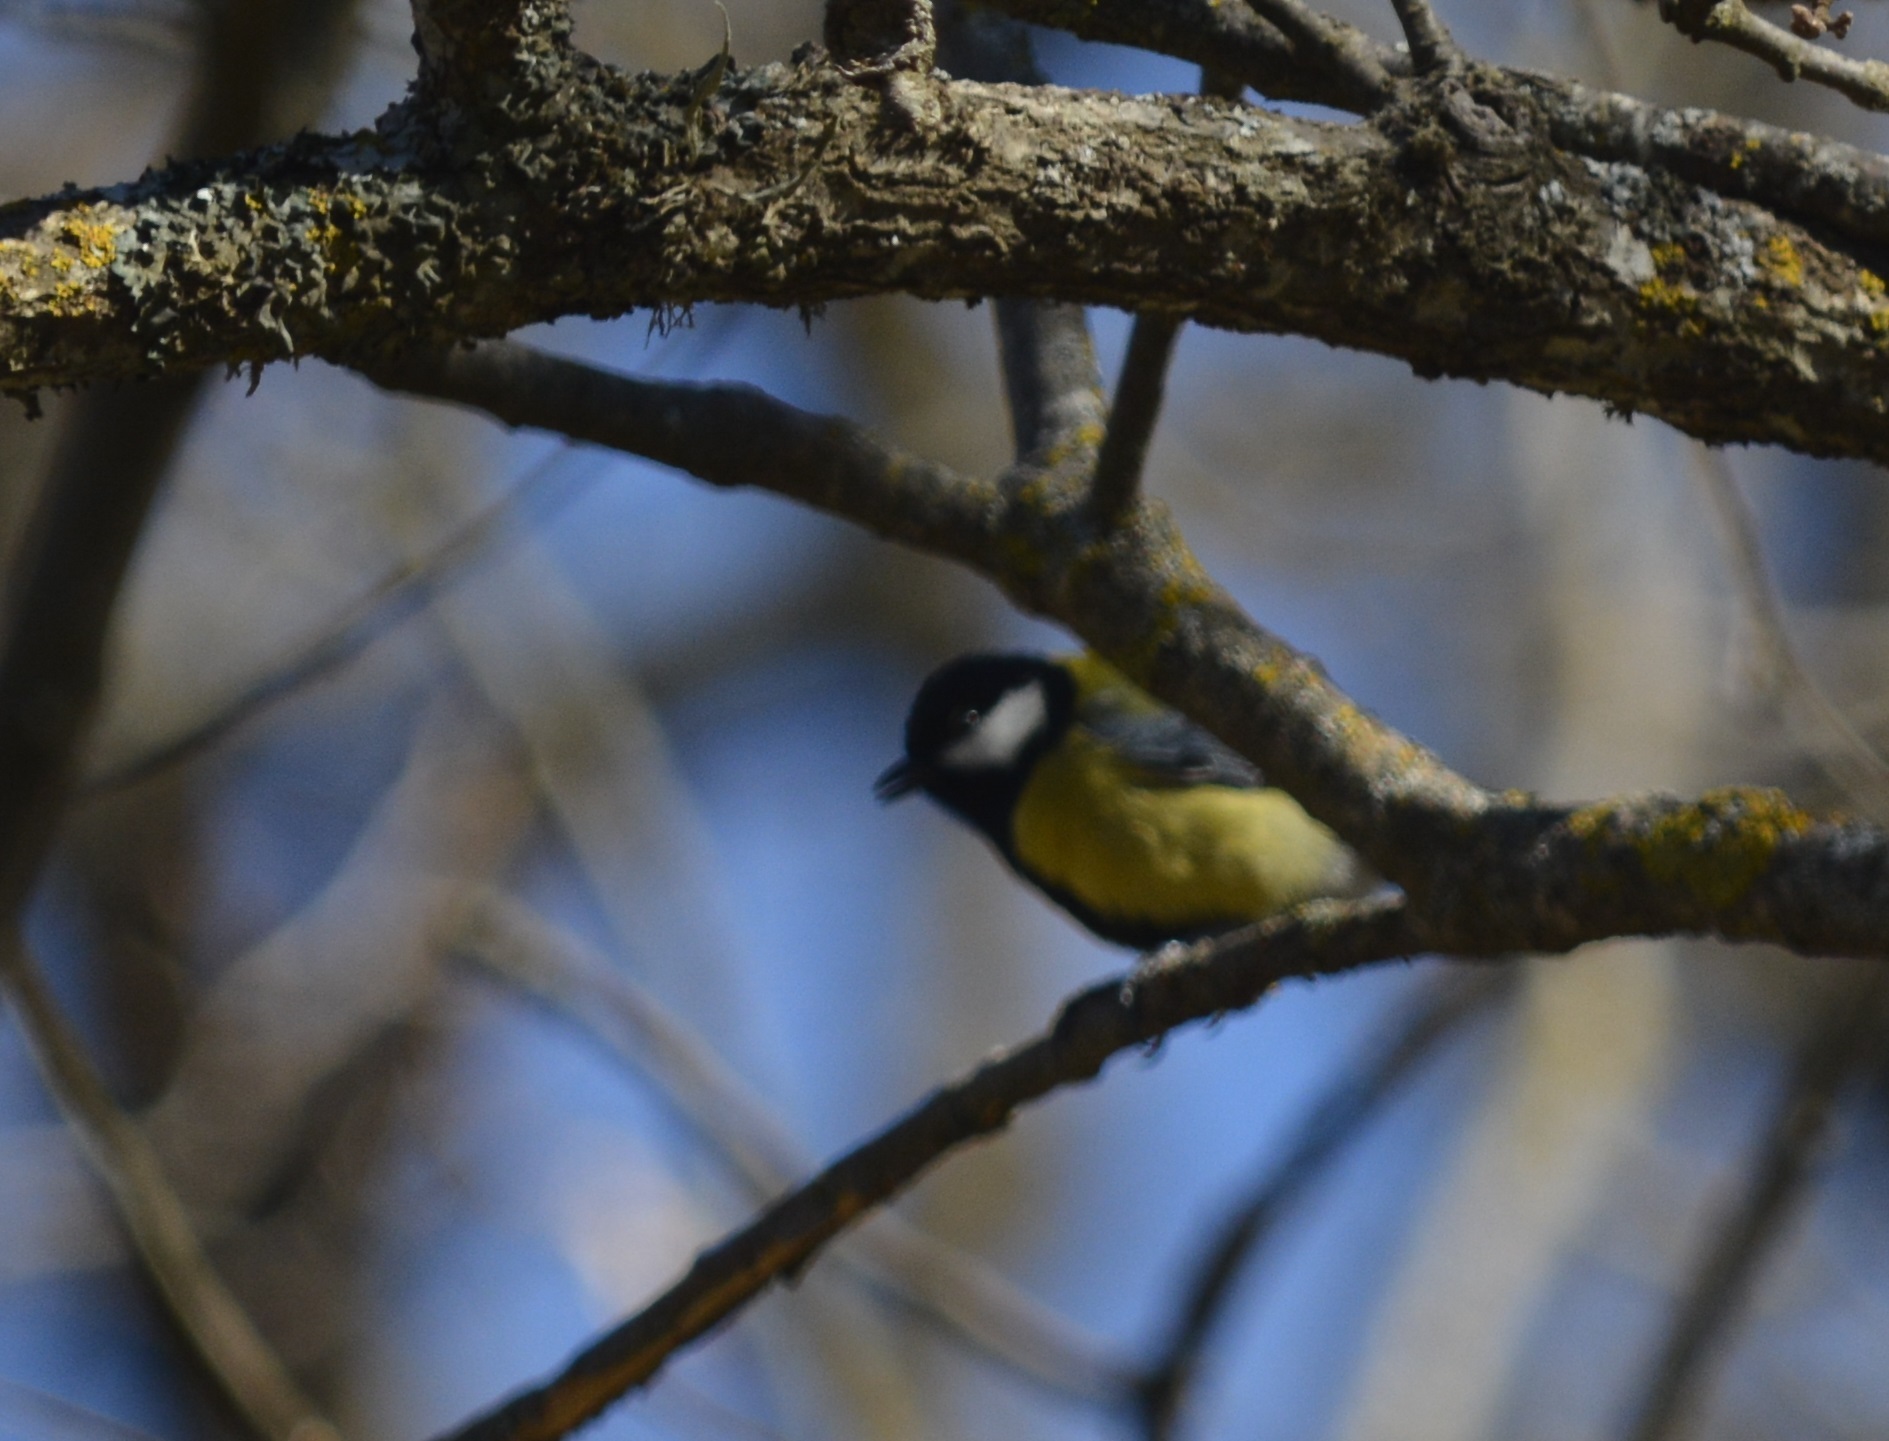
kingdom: Animalia
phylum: Chordata
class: Aves
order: Passeriformes
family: Paridae
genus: Parus
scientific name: Parus major
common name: Great tit
